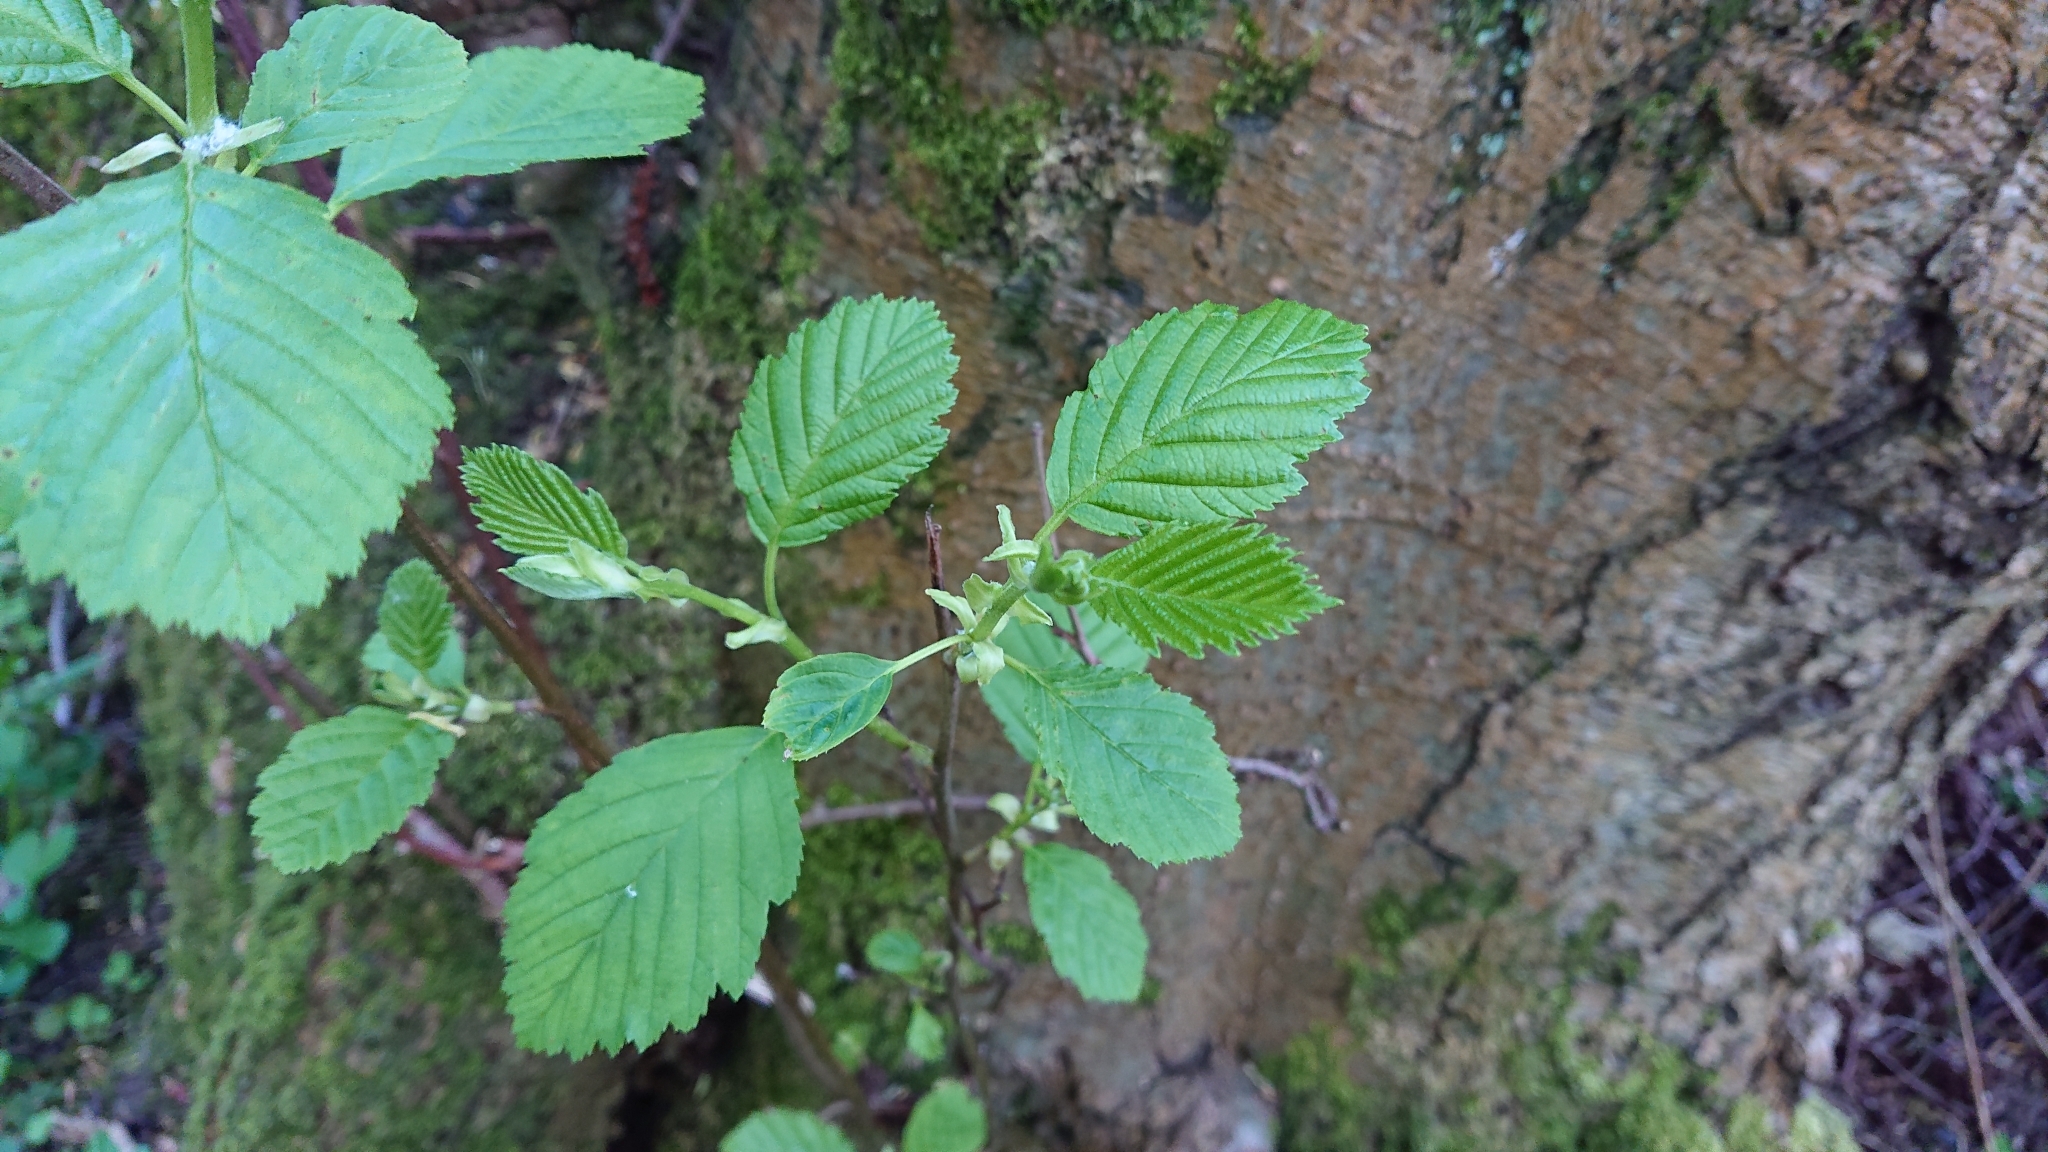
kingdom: Plantae
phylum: Tracheophyta
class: Magnoliopsida
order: Fagales
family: Betulaceae
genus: Alnus
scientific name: Alnus incana
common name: Grey alder
